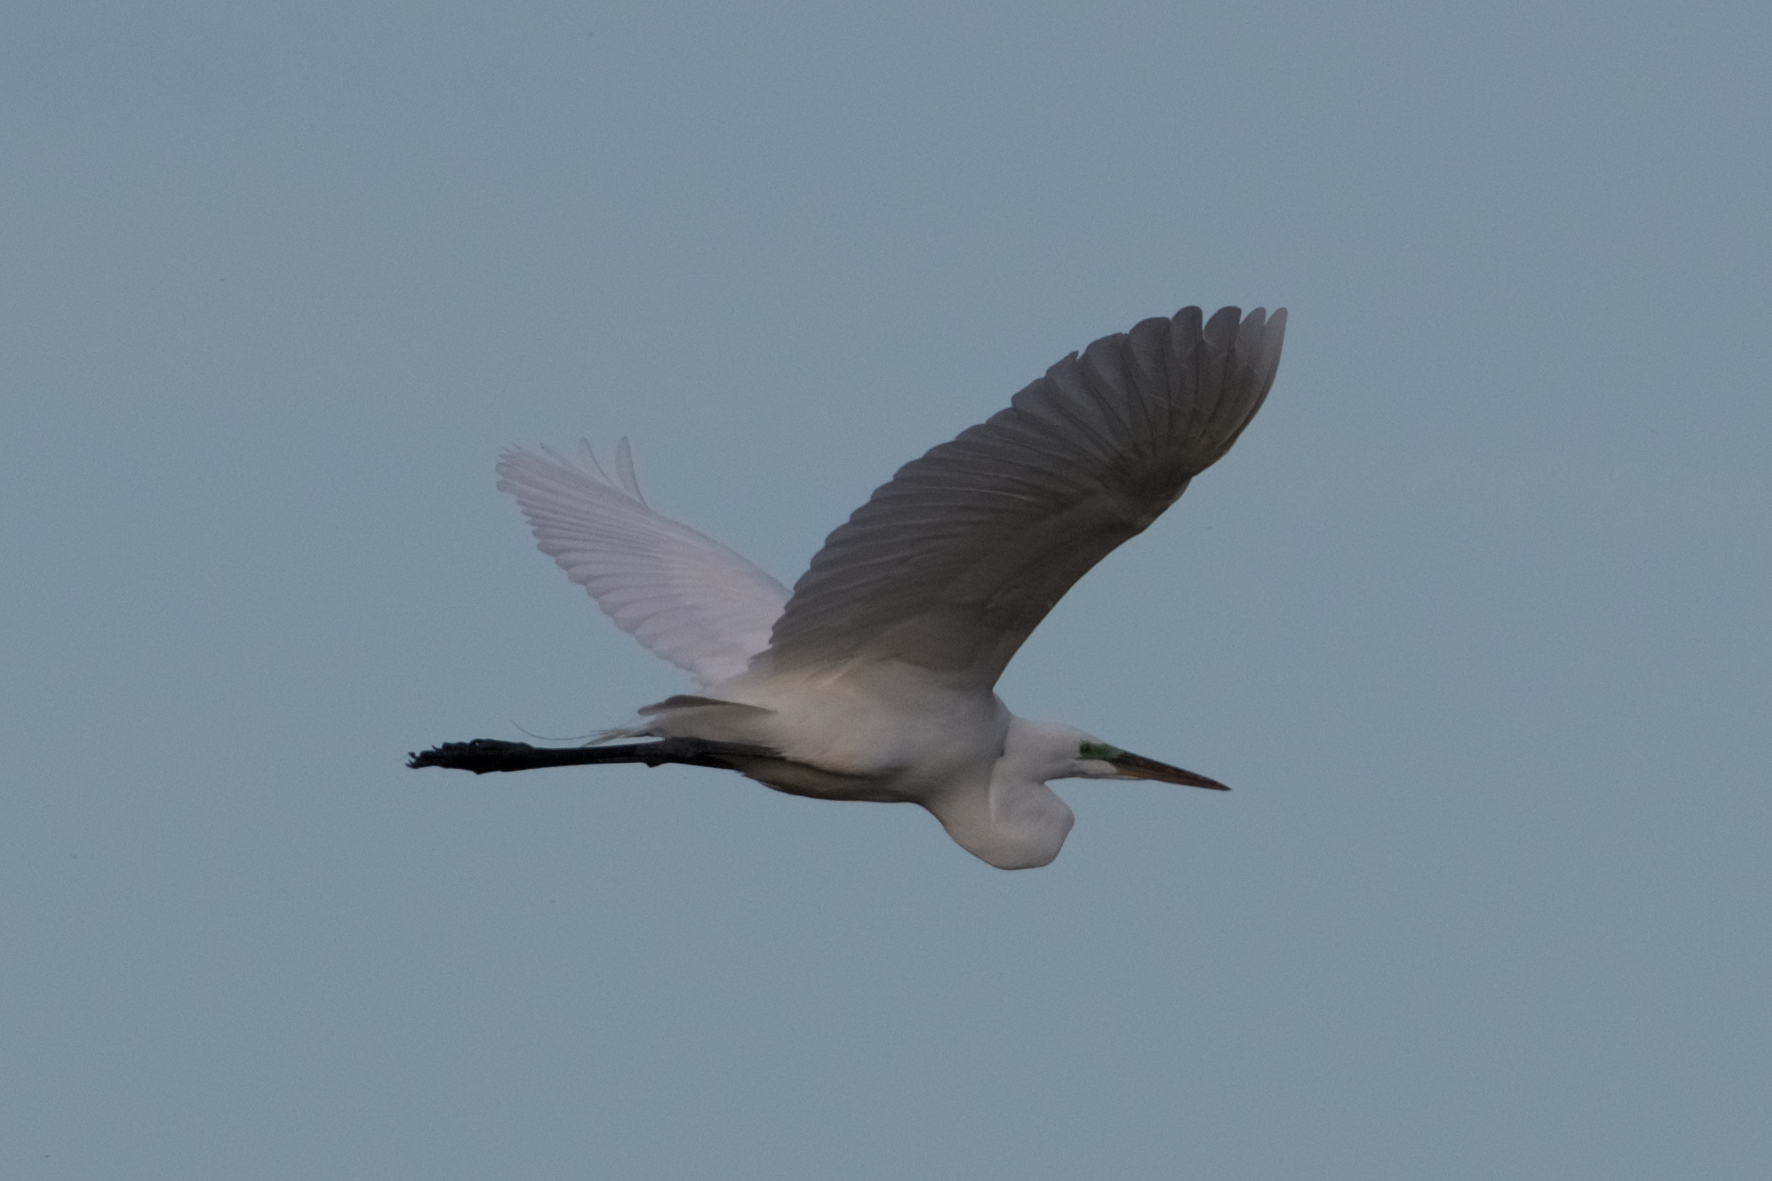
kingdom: Animalia
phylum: Chordata
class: Aves
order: Pelecaniformes
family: Ardeidae
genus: Ardea
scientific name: Ardea alba
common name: Great egret
